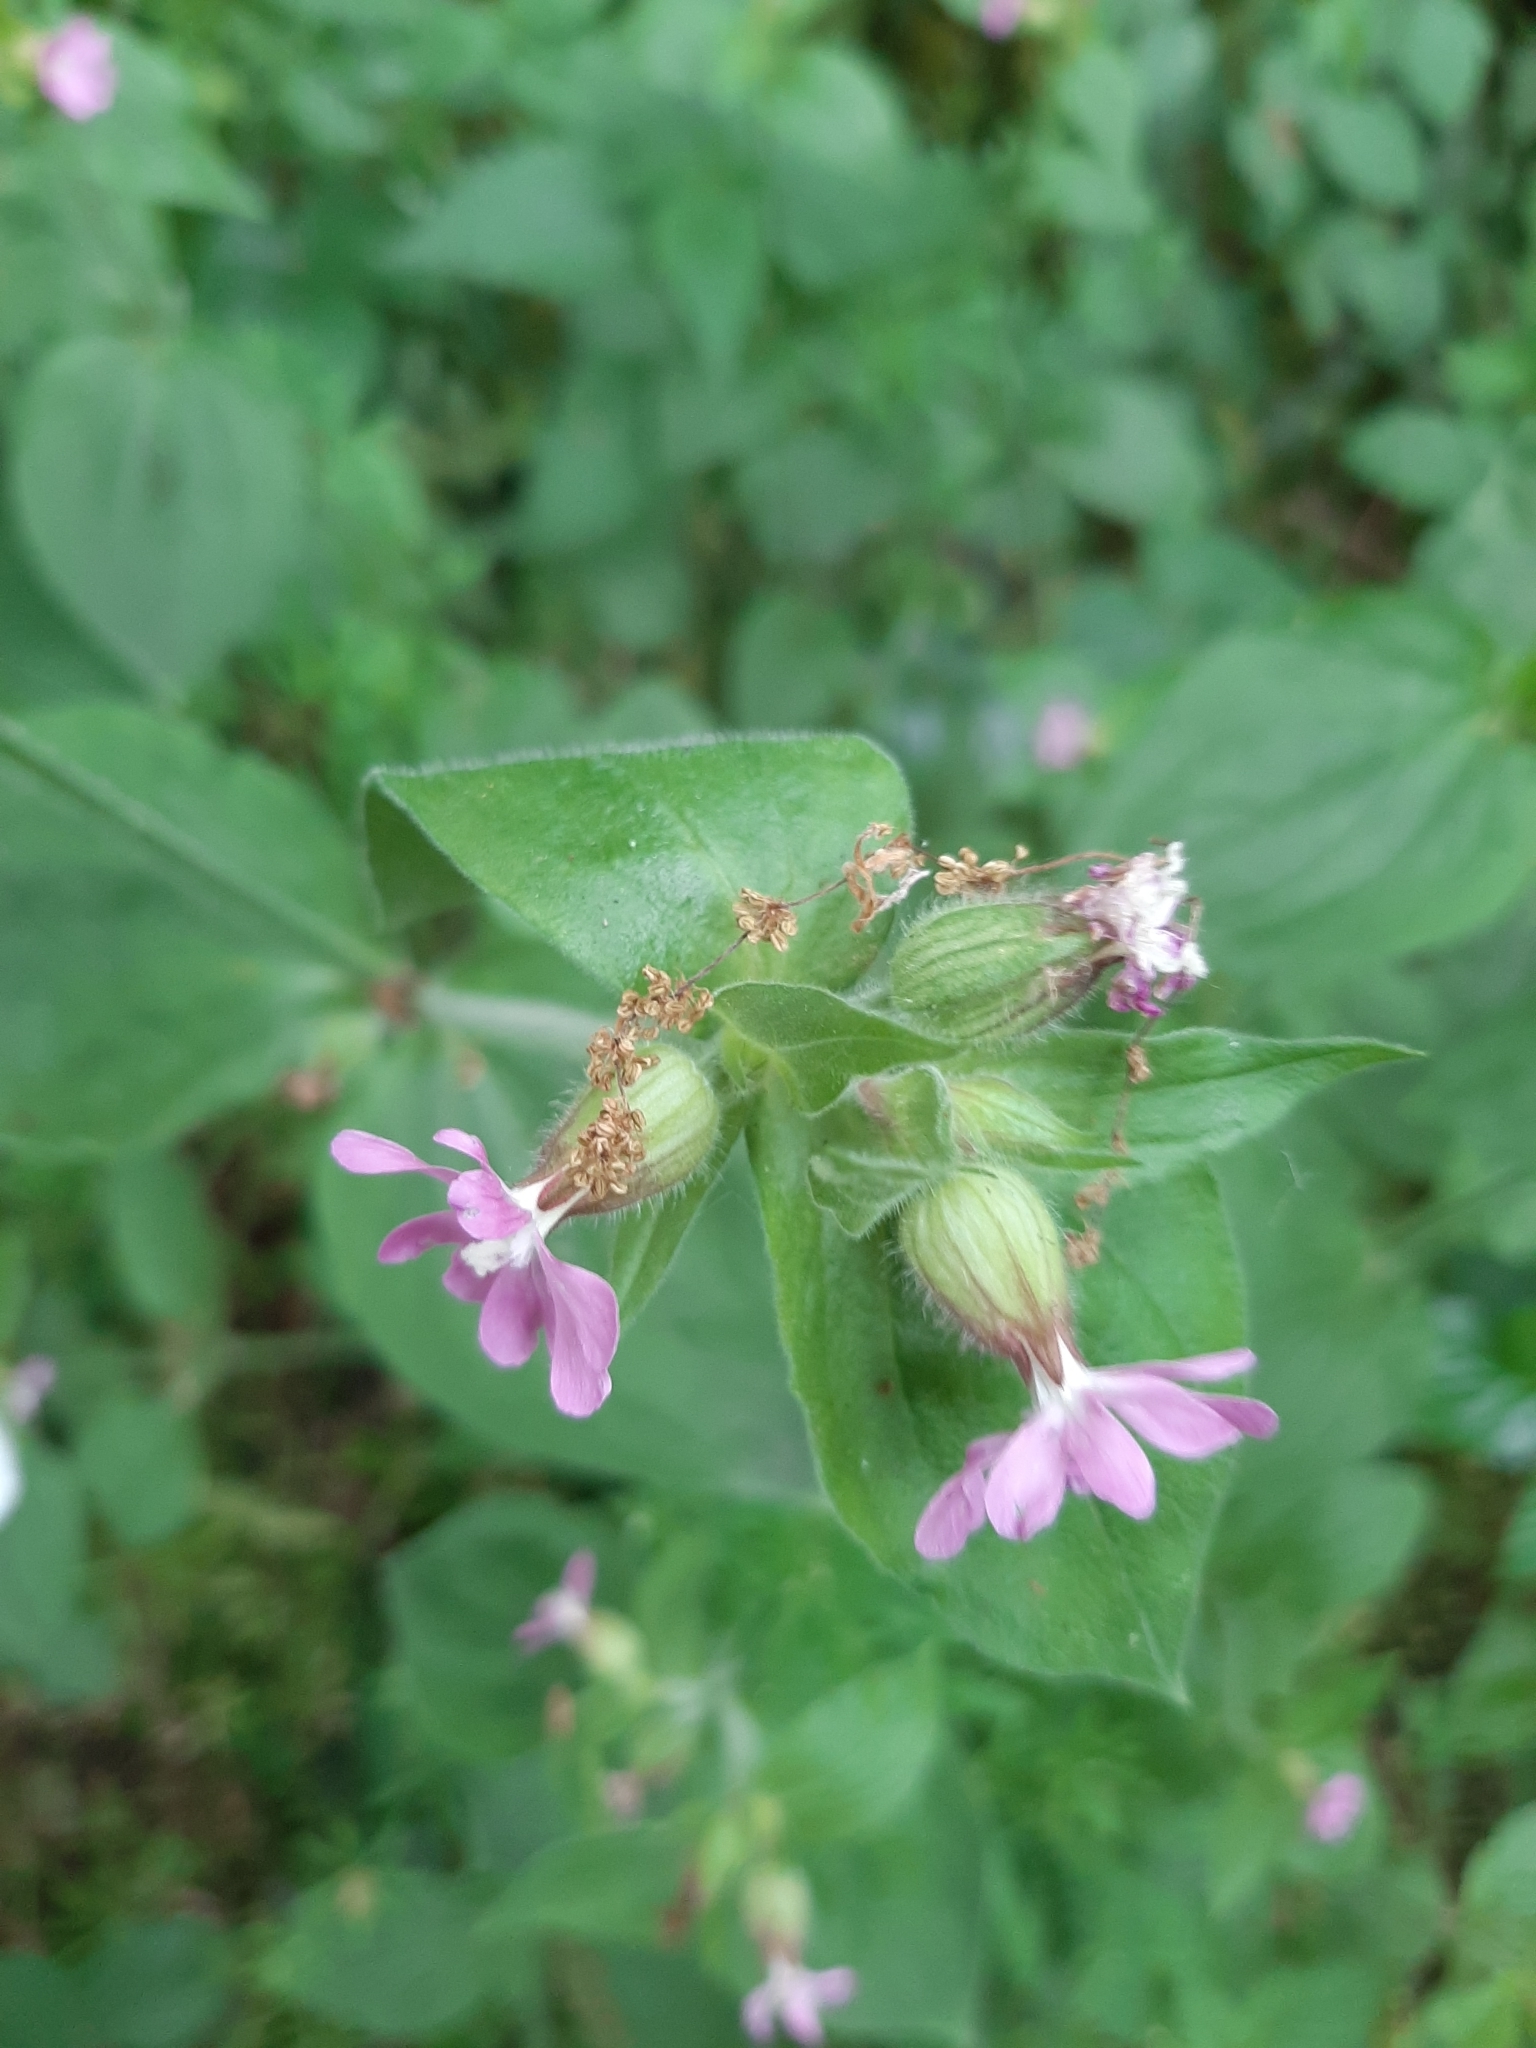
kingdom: Plantae
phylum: Tracheophyta
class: Magnoliopsida
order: Caryophyllales
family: Caryophyllaceae
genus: Silene
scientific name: Silene dioica
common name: Red campion
